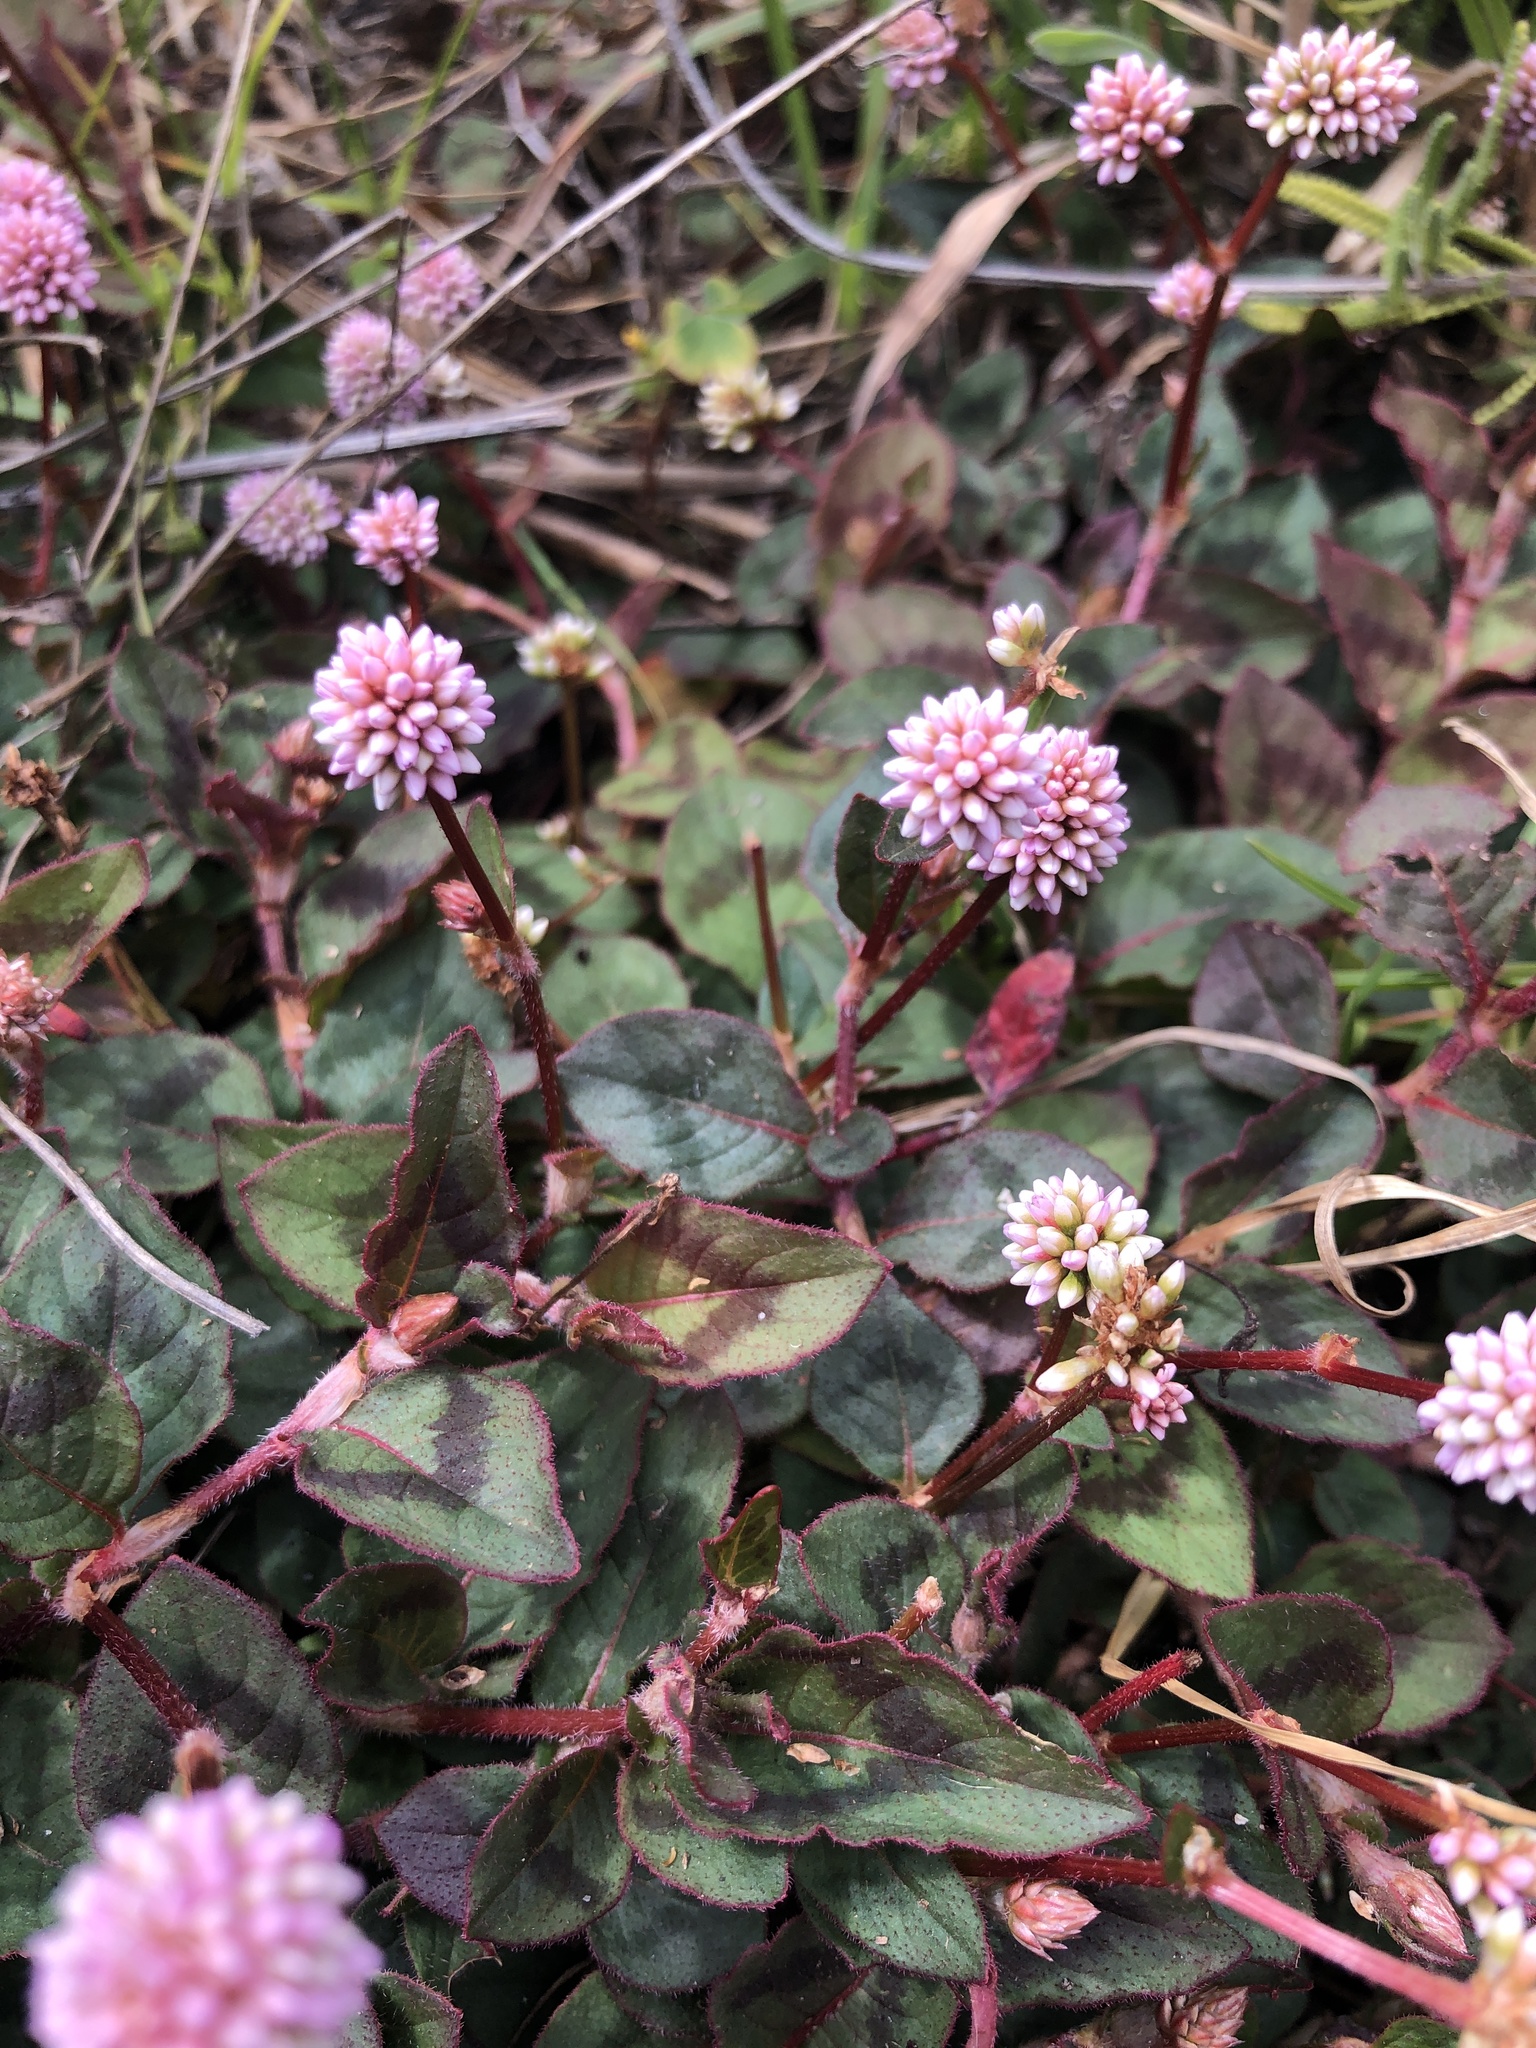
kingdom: Plantae
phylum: Tracheophyta
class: Magnoliopsida
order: Caryophyllales
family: Polygonaceae
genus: Persicaria
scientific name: Persicaria capitata
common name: Pinkhead smartweed
